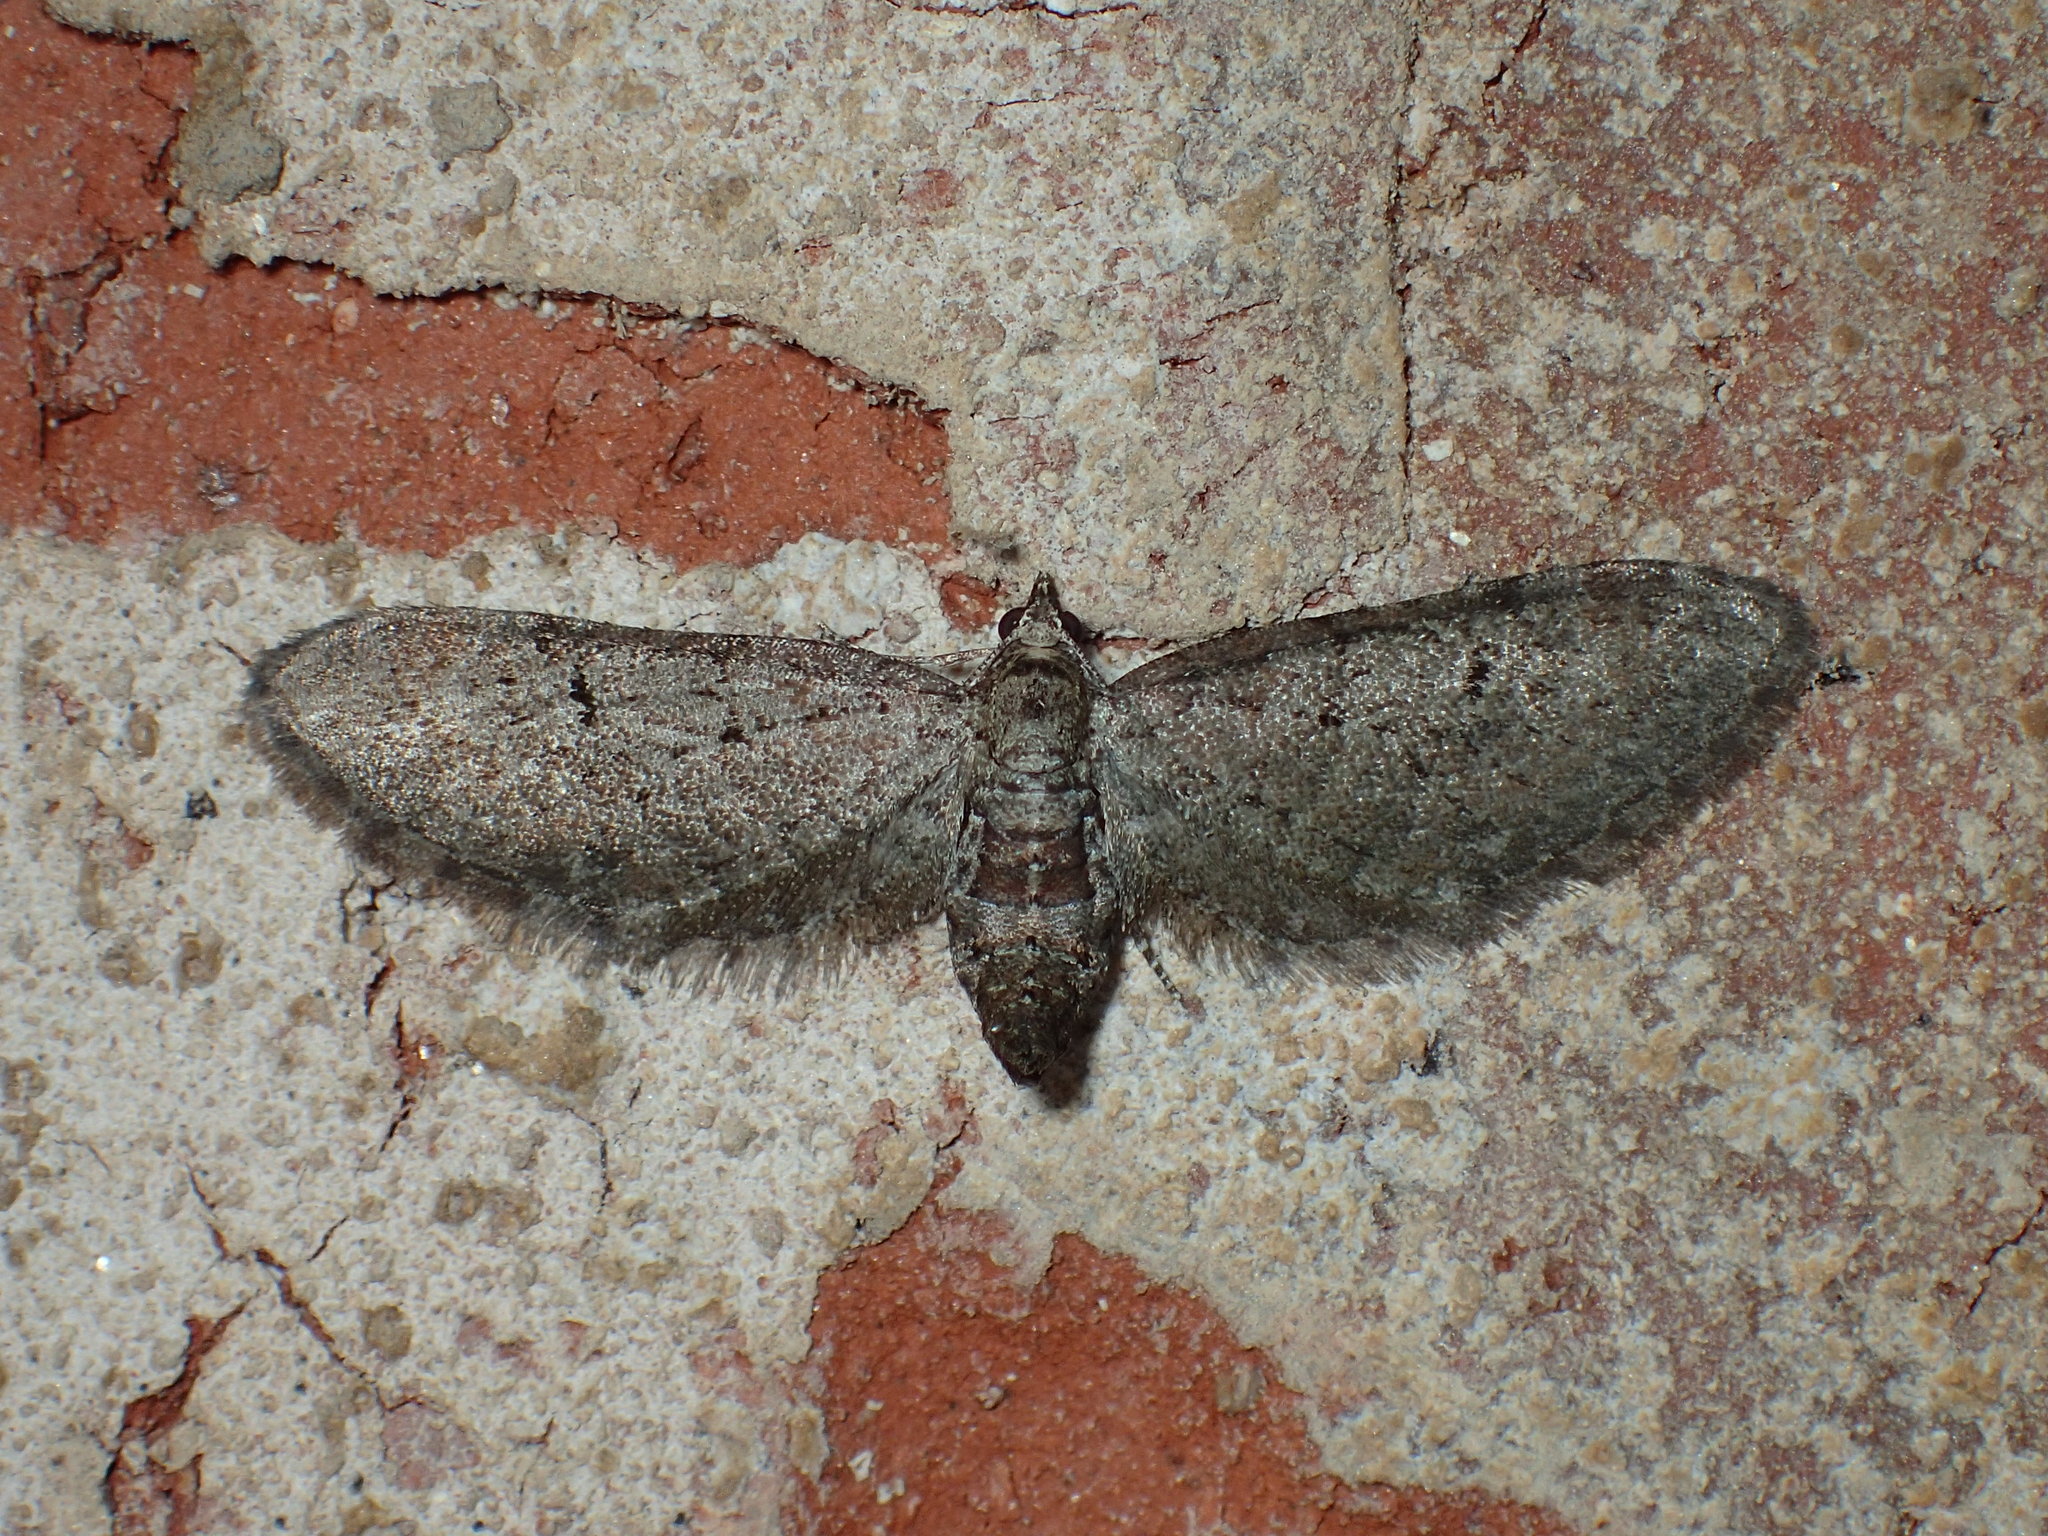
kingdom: Animalia
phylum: Arthropoda
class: Insecta
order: Lepidoptera
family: Geometridae
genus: Eupithecia
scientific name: Eupithecia miserulata
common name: Common eupithecia
